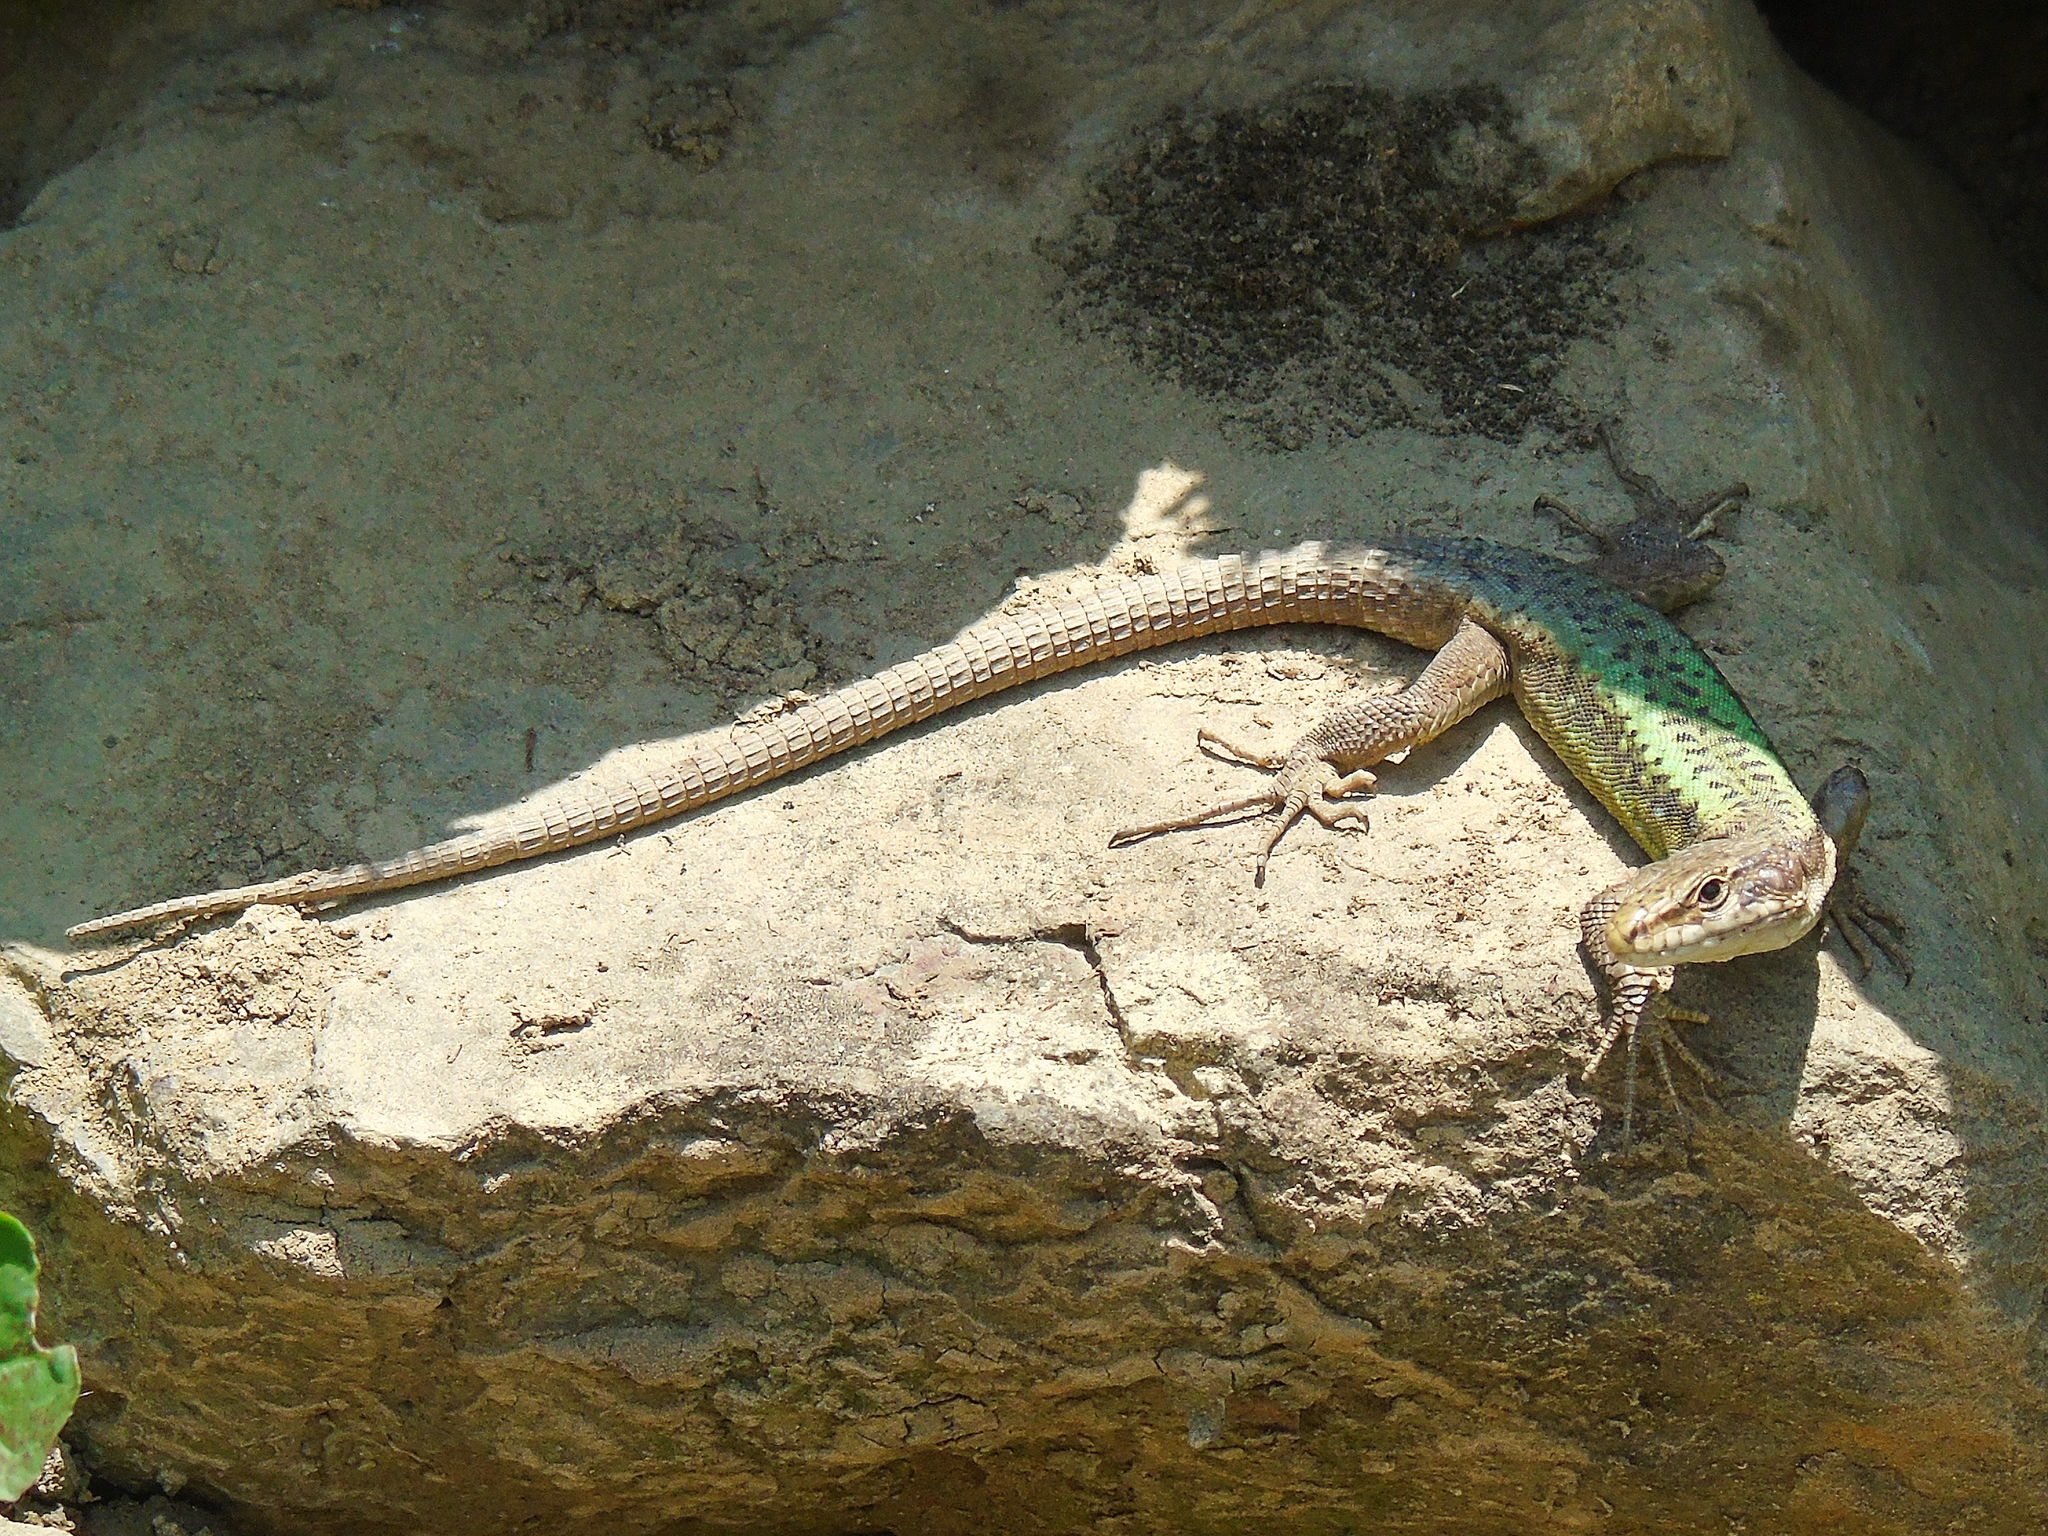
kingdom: Animalia
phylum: Chordata
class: Squamata
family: Lacertidae
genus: Darevskia
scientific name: Darevskia rudis
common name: Spiny-tailed lizard
